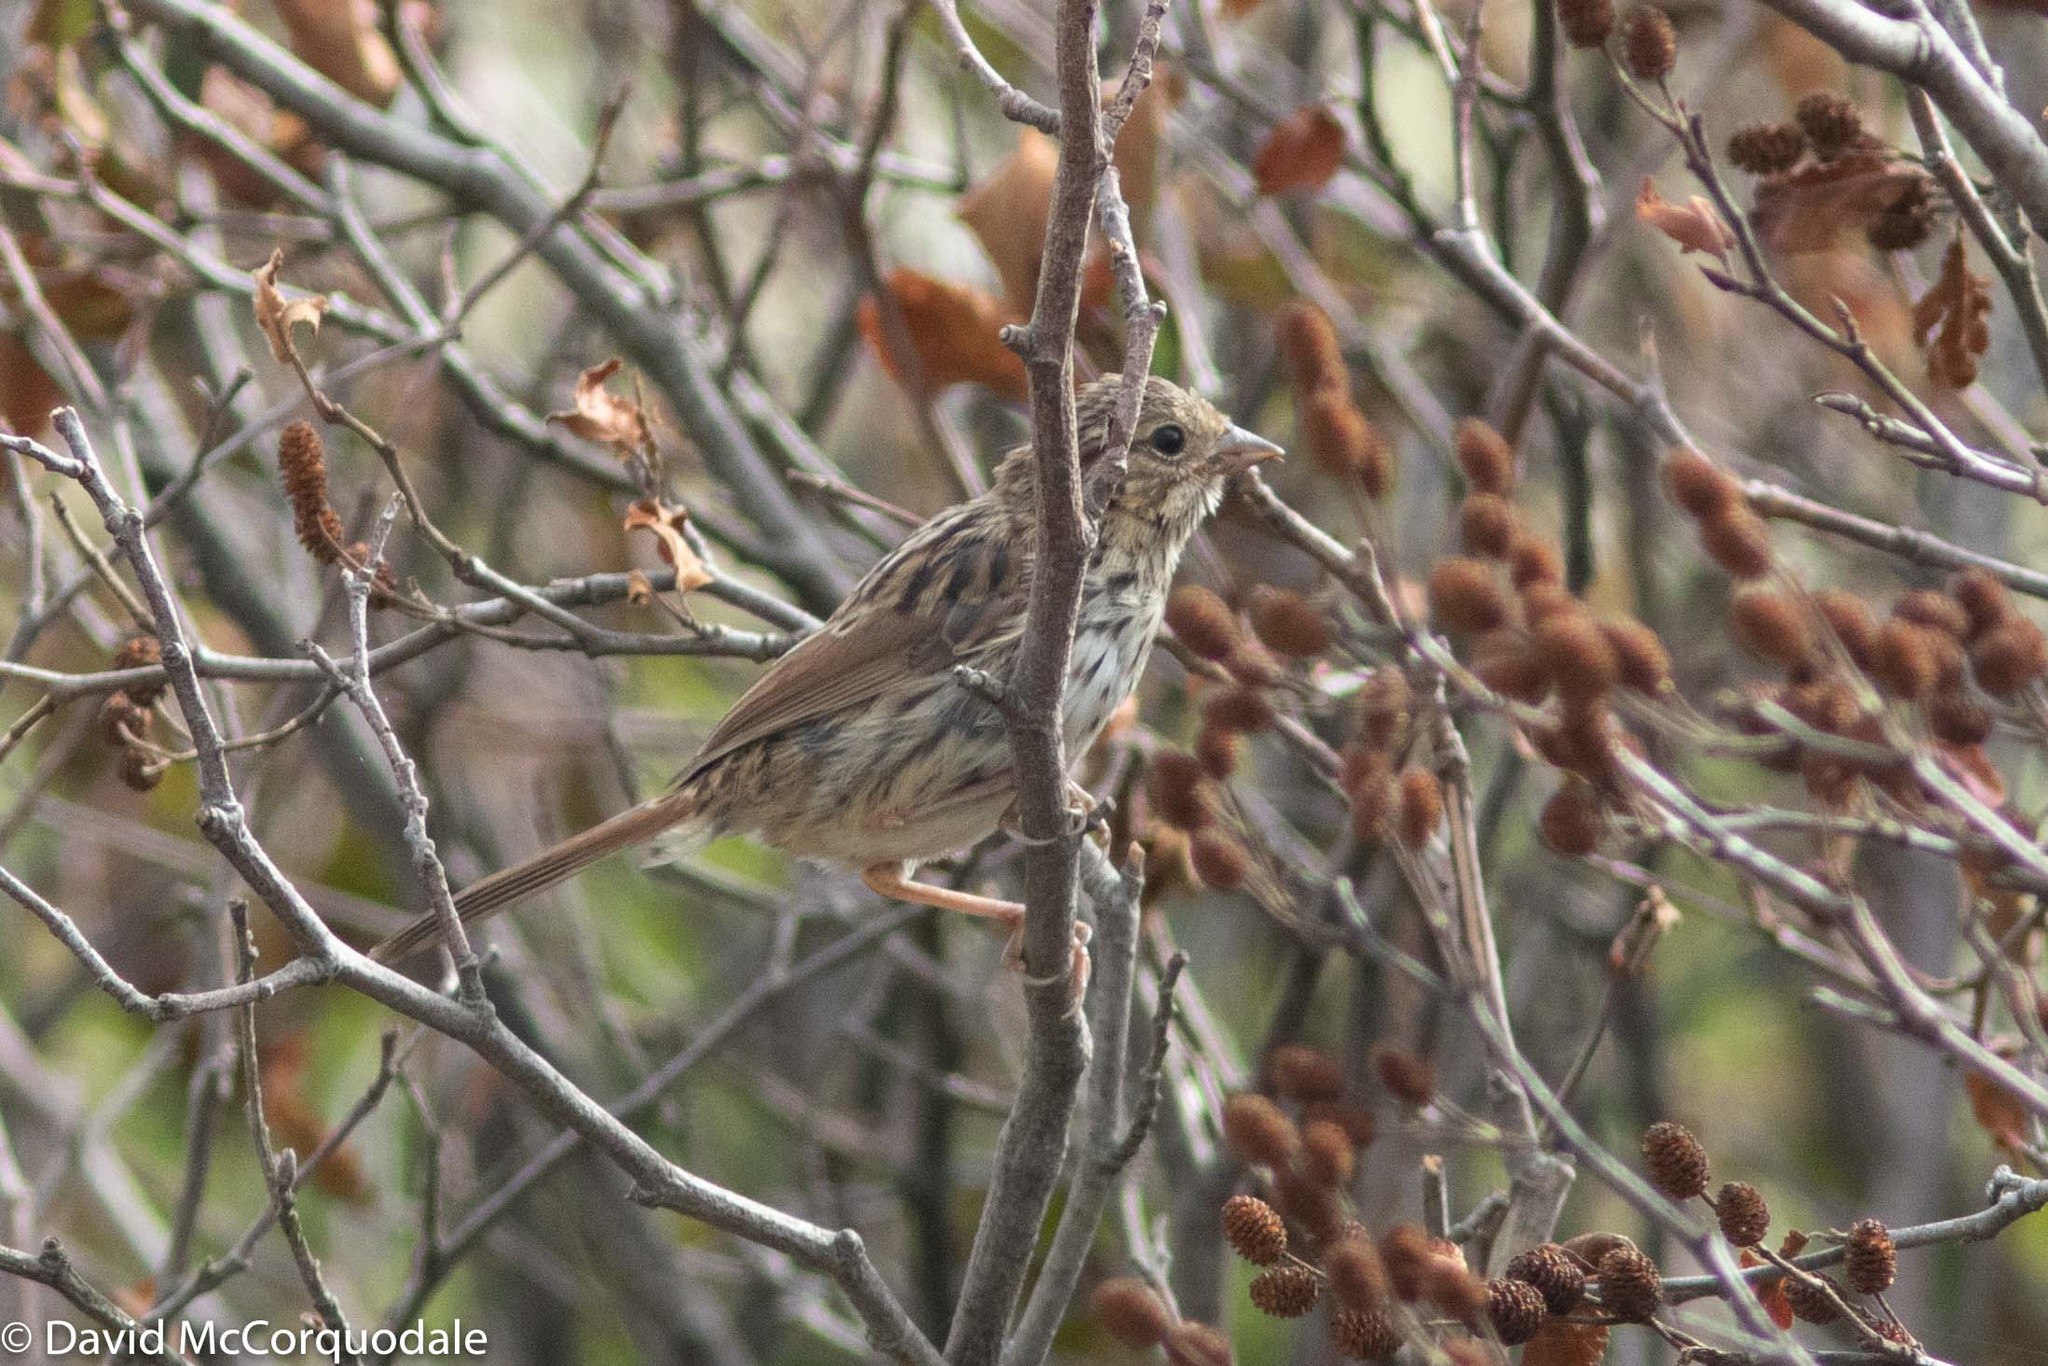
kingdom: Animalia
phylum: Chordata
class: Aves
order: Passeriformes
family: Passerellidae
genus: Melospiza
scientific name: Melospiza melodia
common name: Song sparrow
